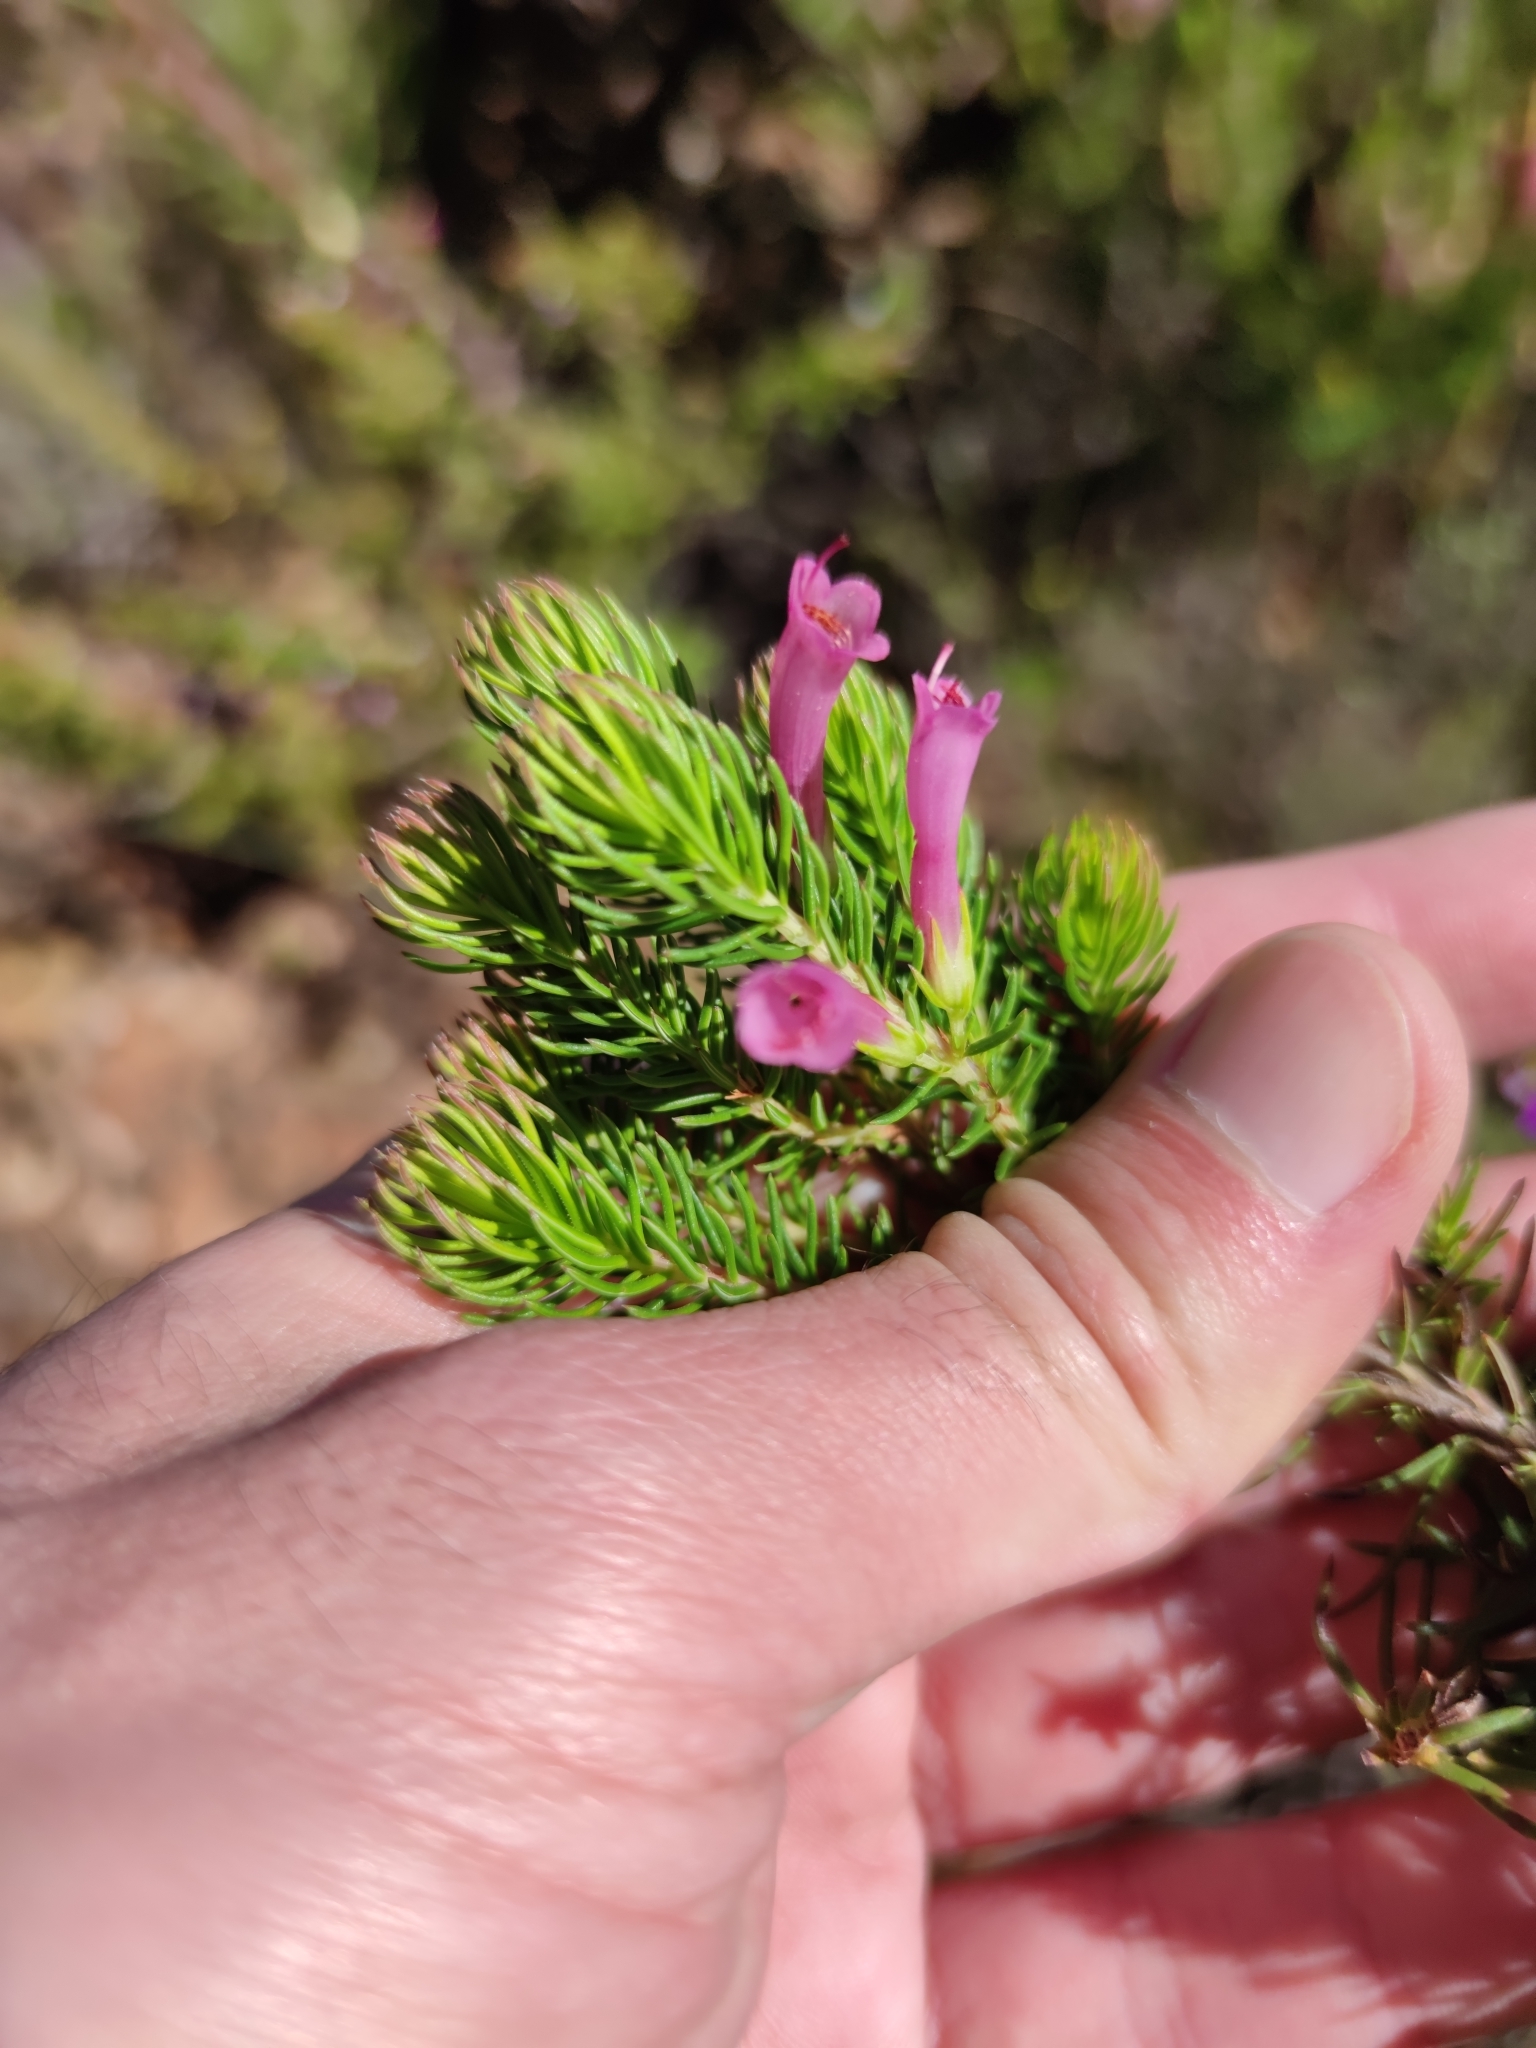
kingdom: Plantae
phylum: Tracheophyta
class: Magnoliopsida
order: Ericales
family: Ericaceae
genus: Erica
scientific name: Erica abietina
